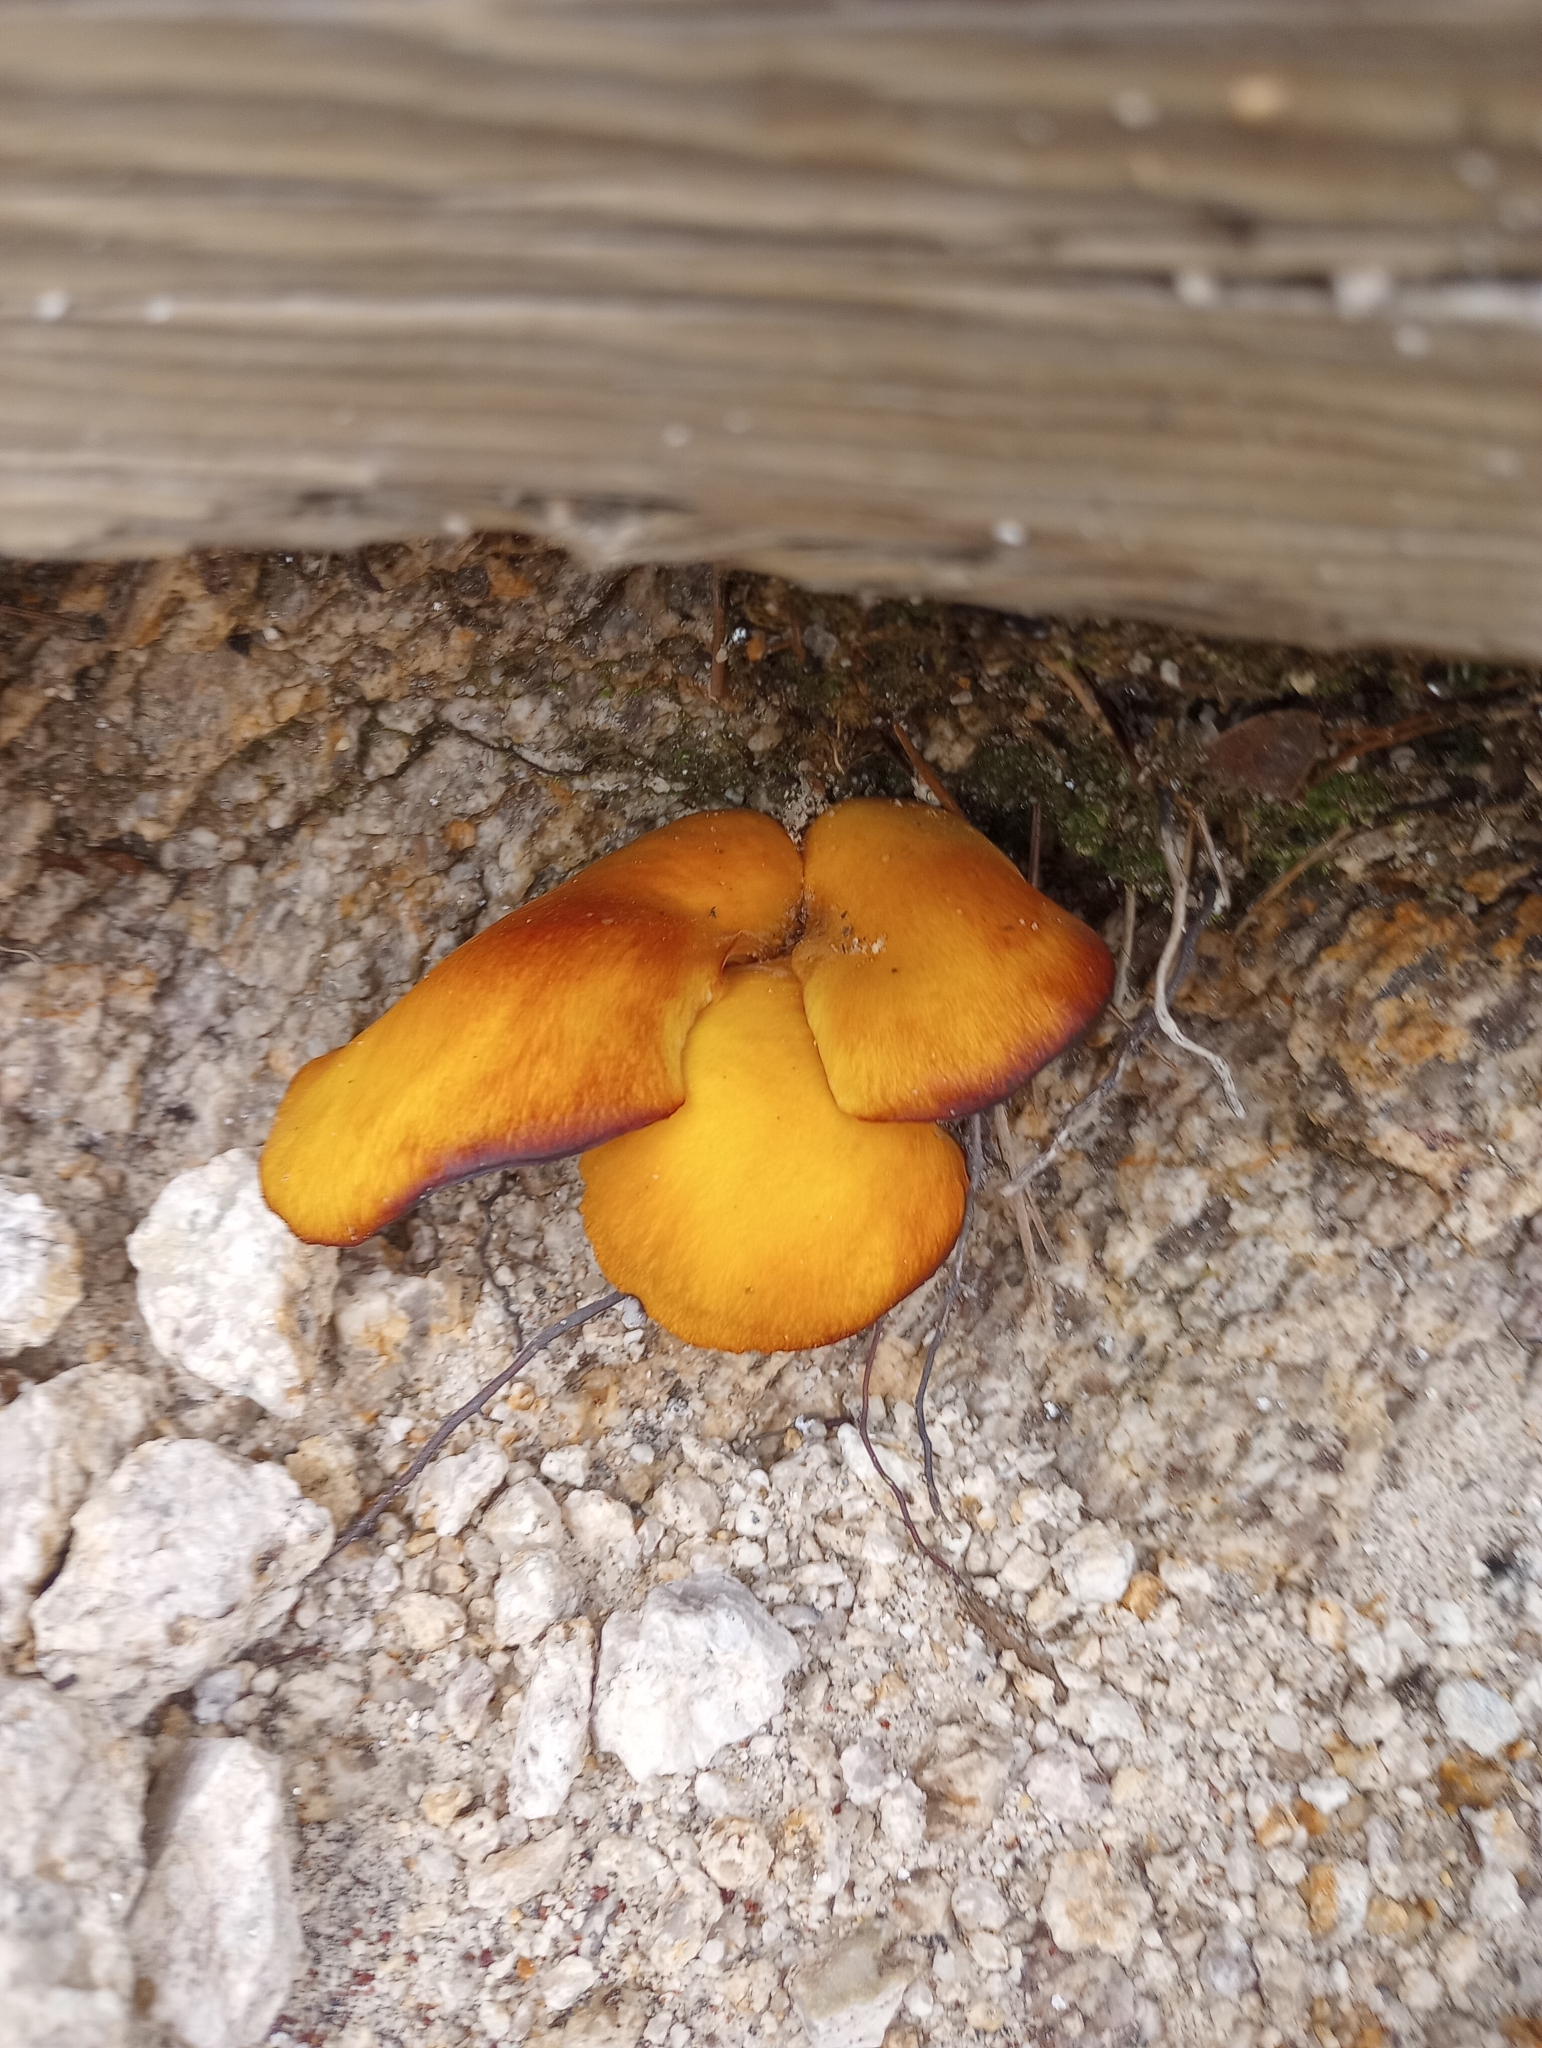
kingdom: Fungi
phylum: Basidiomycota
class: Agaricomycetes
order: Agaricales
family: Omphalotaceae
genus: Omphalotus
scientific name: Omphalotus subilludens
